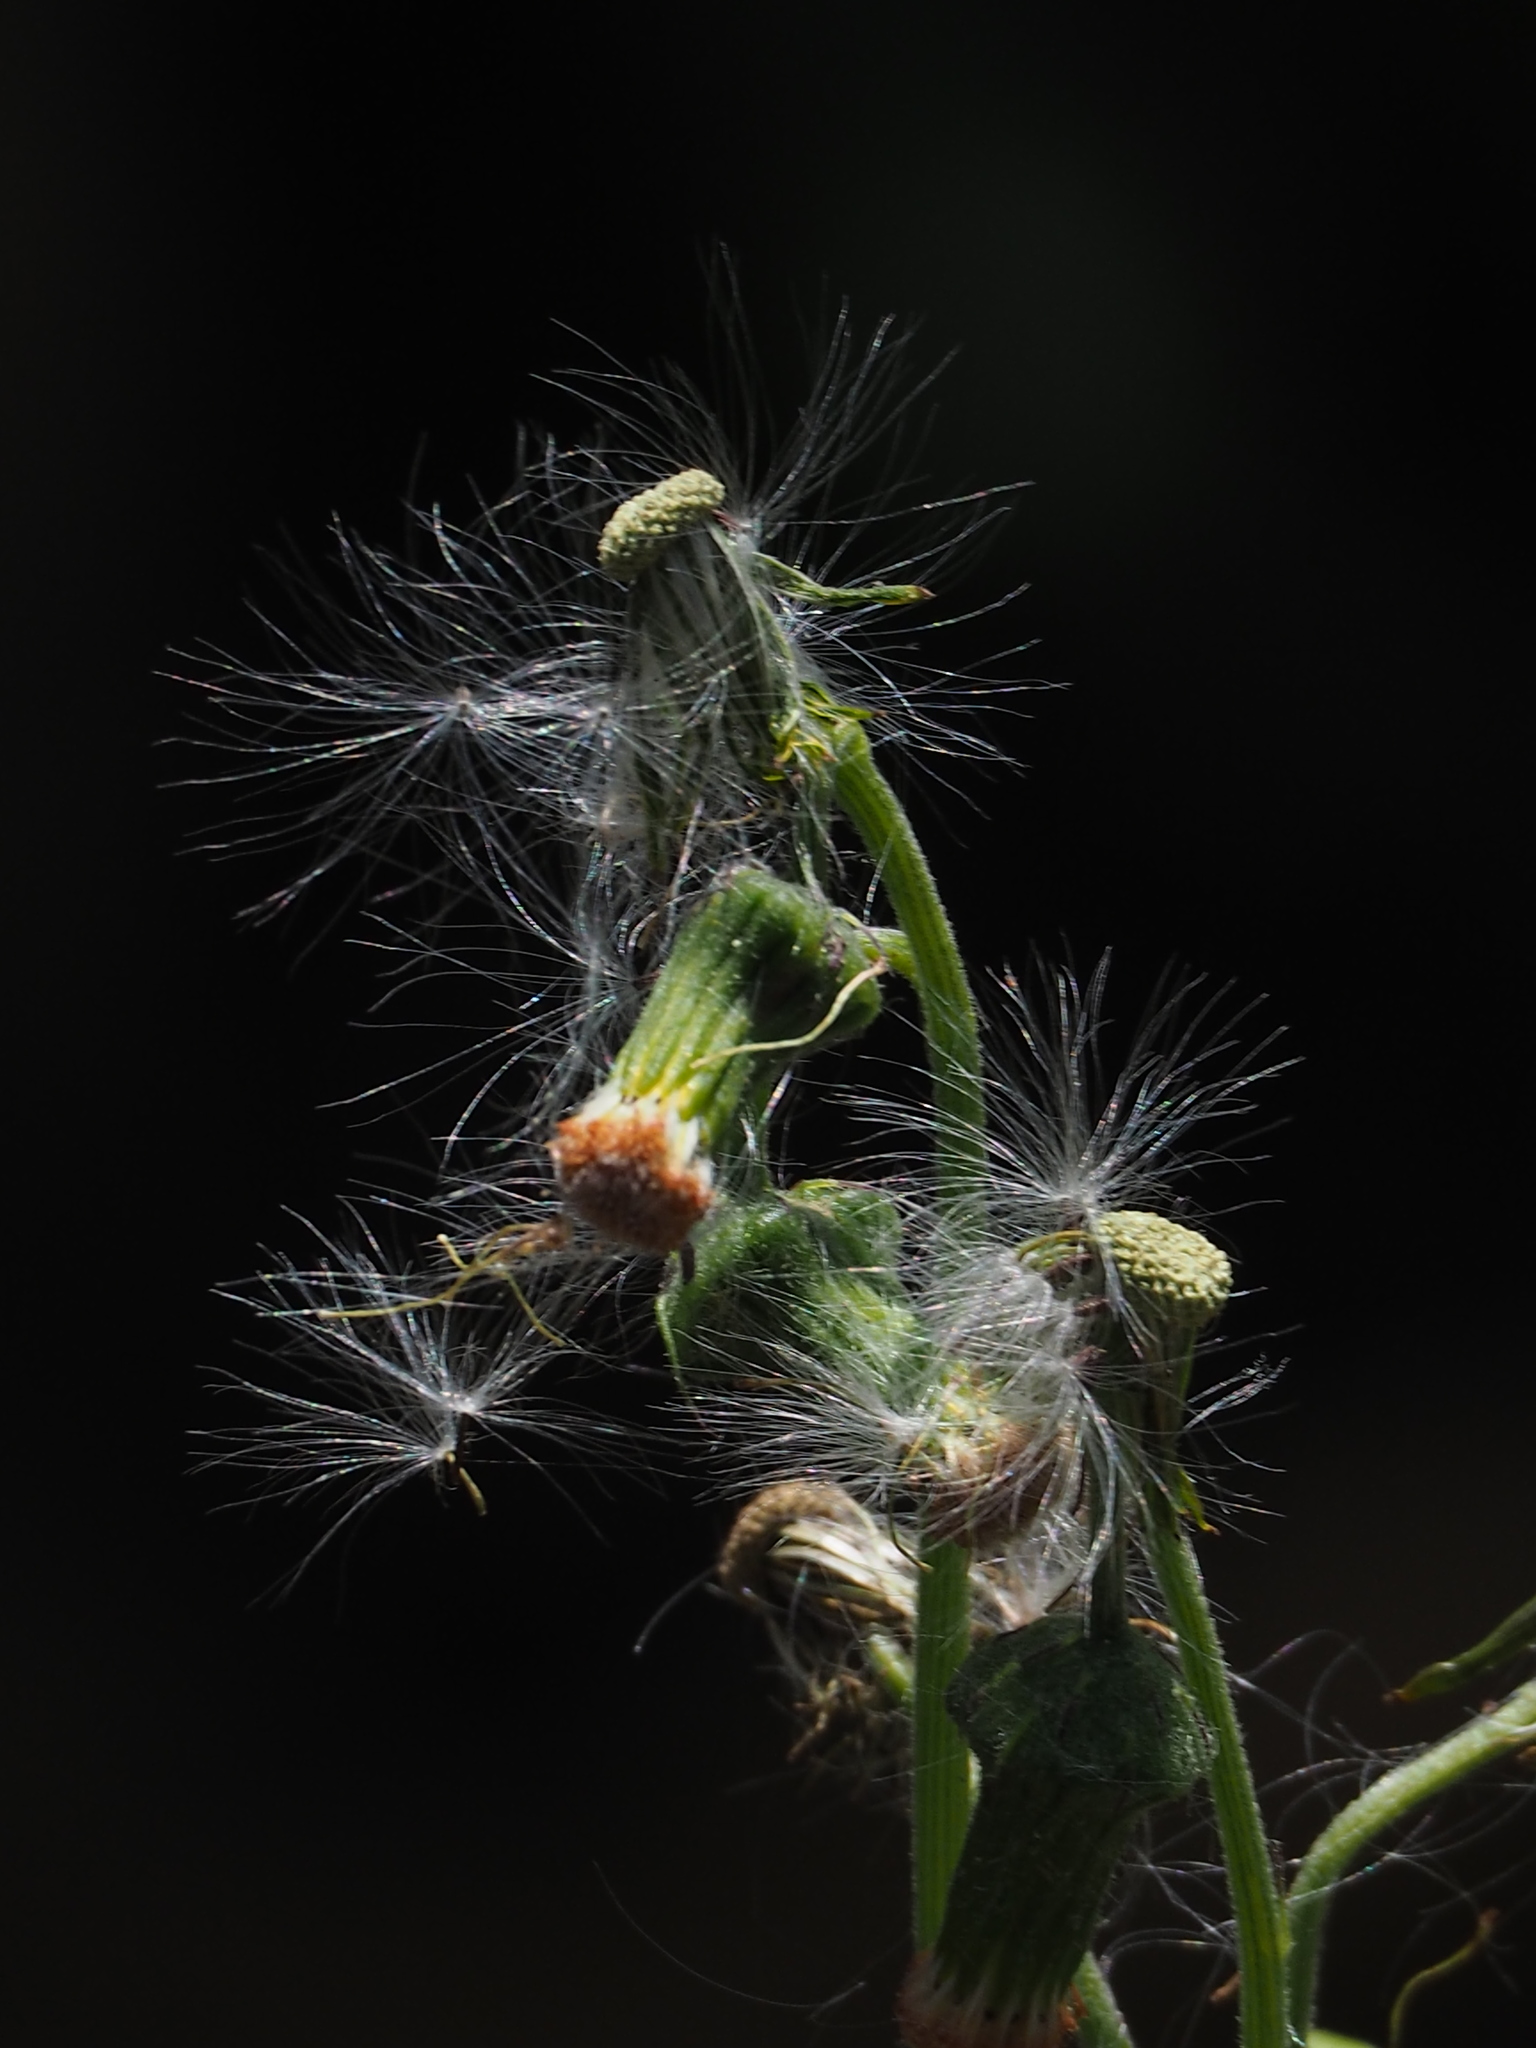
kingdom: Plantae
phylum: Tracheophyta
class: Magnoliopsida
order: Asterales
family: Asteraceae
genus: Crassocephalum
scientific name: Crassocephalum crepidioides
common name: Redflower ragleaf
